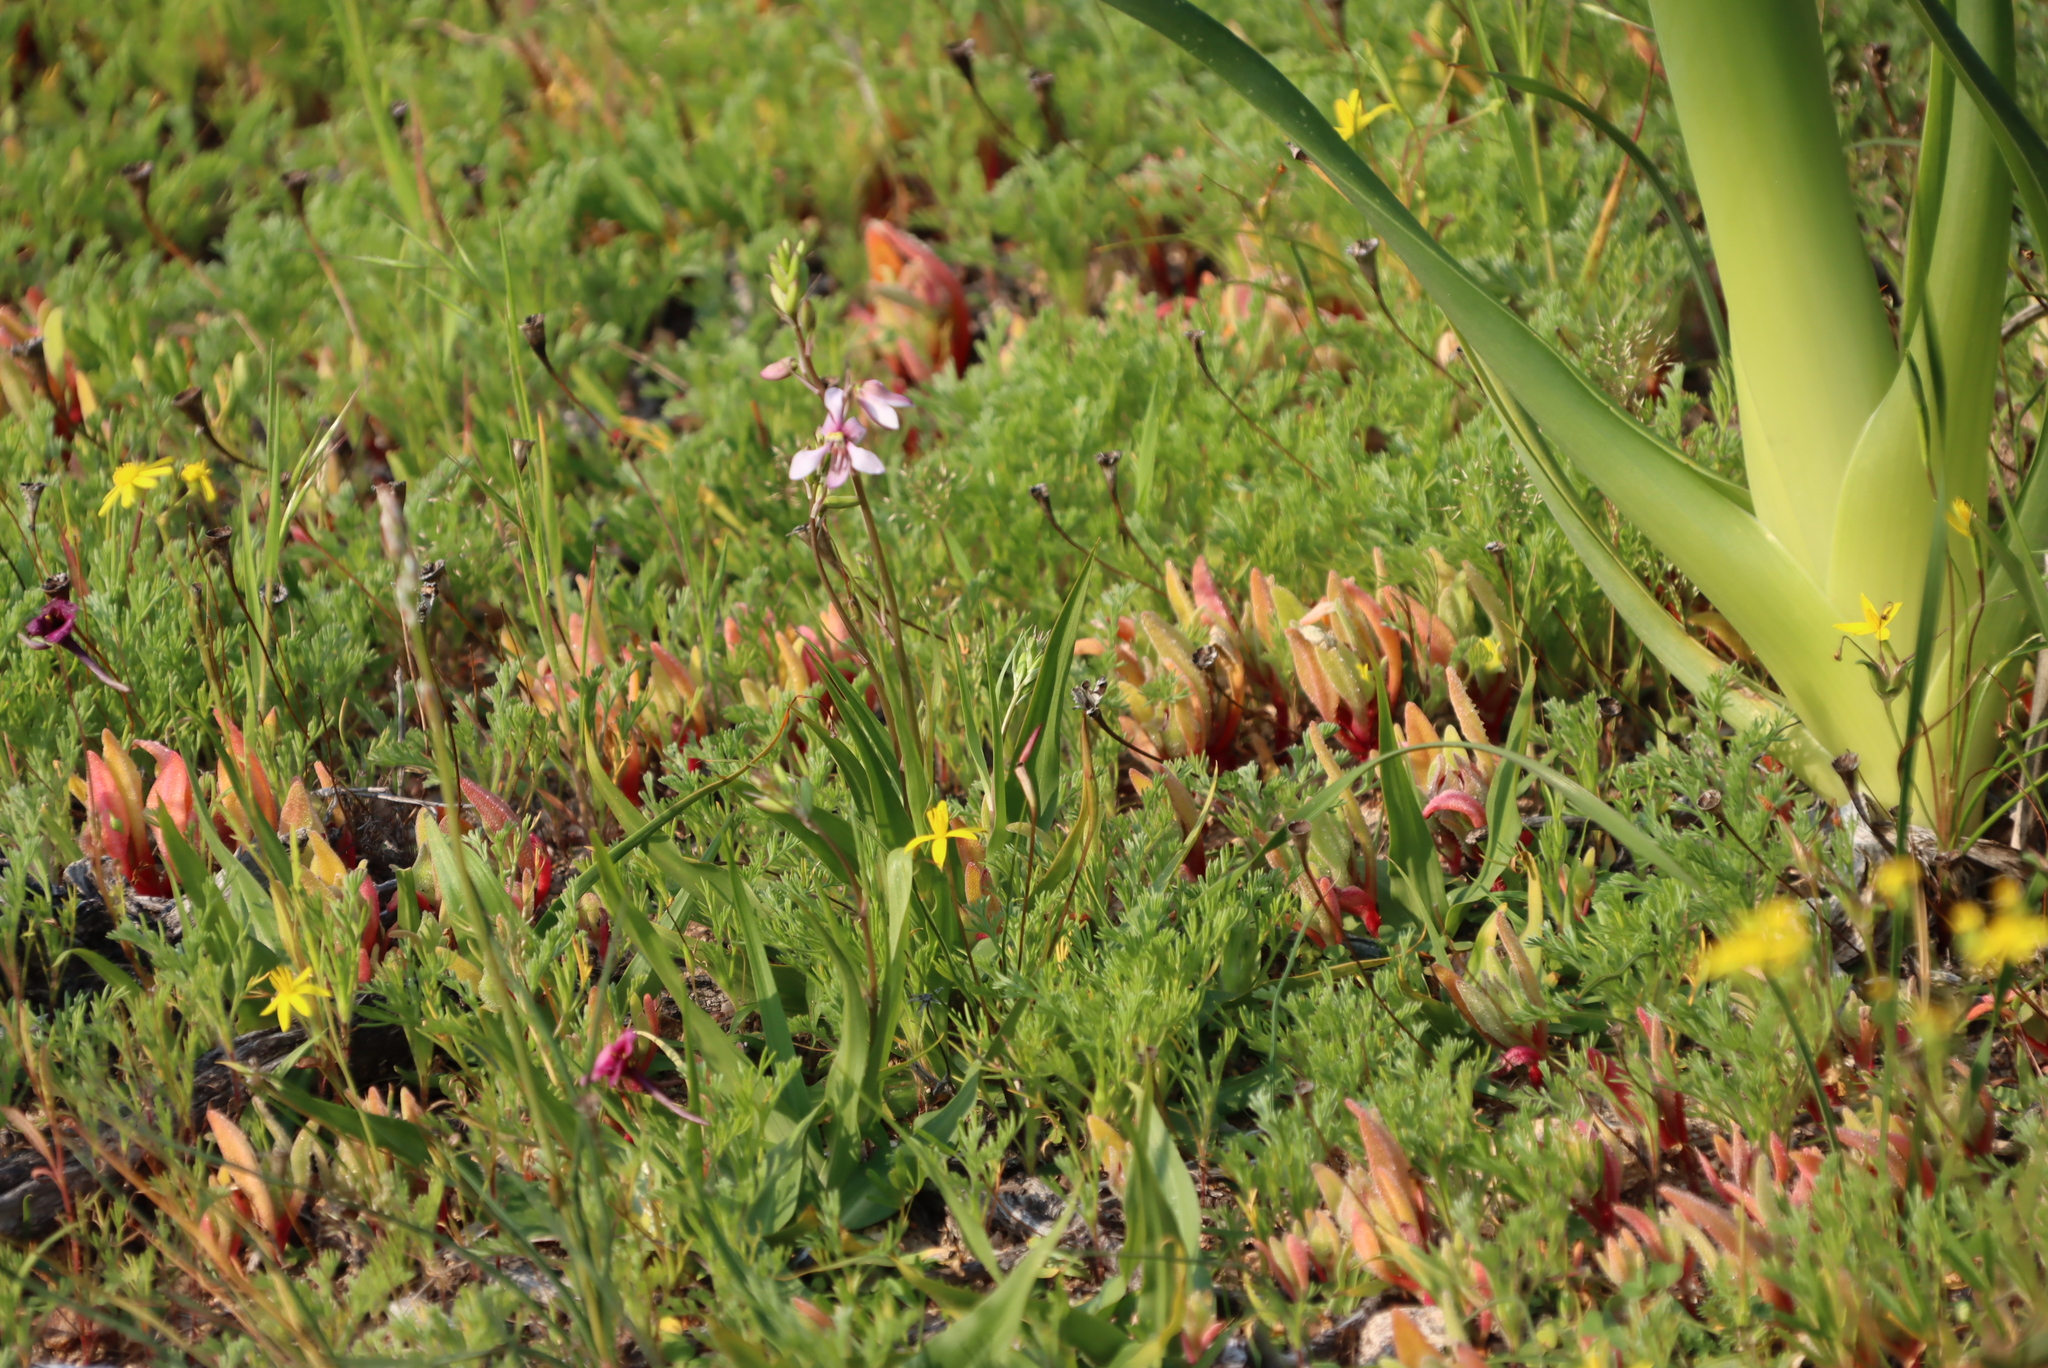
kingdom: Plantae
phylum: Tracheophyta
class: Liliopsida
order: Asparagales
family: Tecophilaeaceae
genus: Cyanella
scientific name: Cyanella orchidiformis
